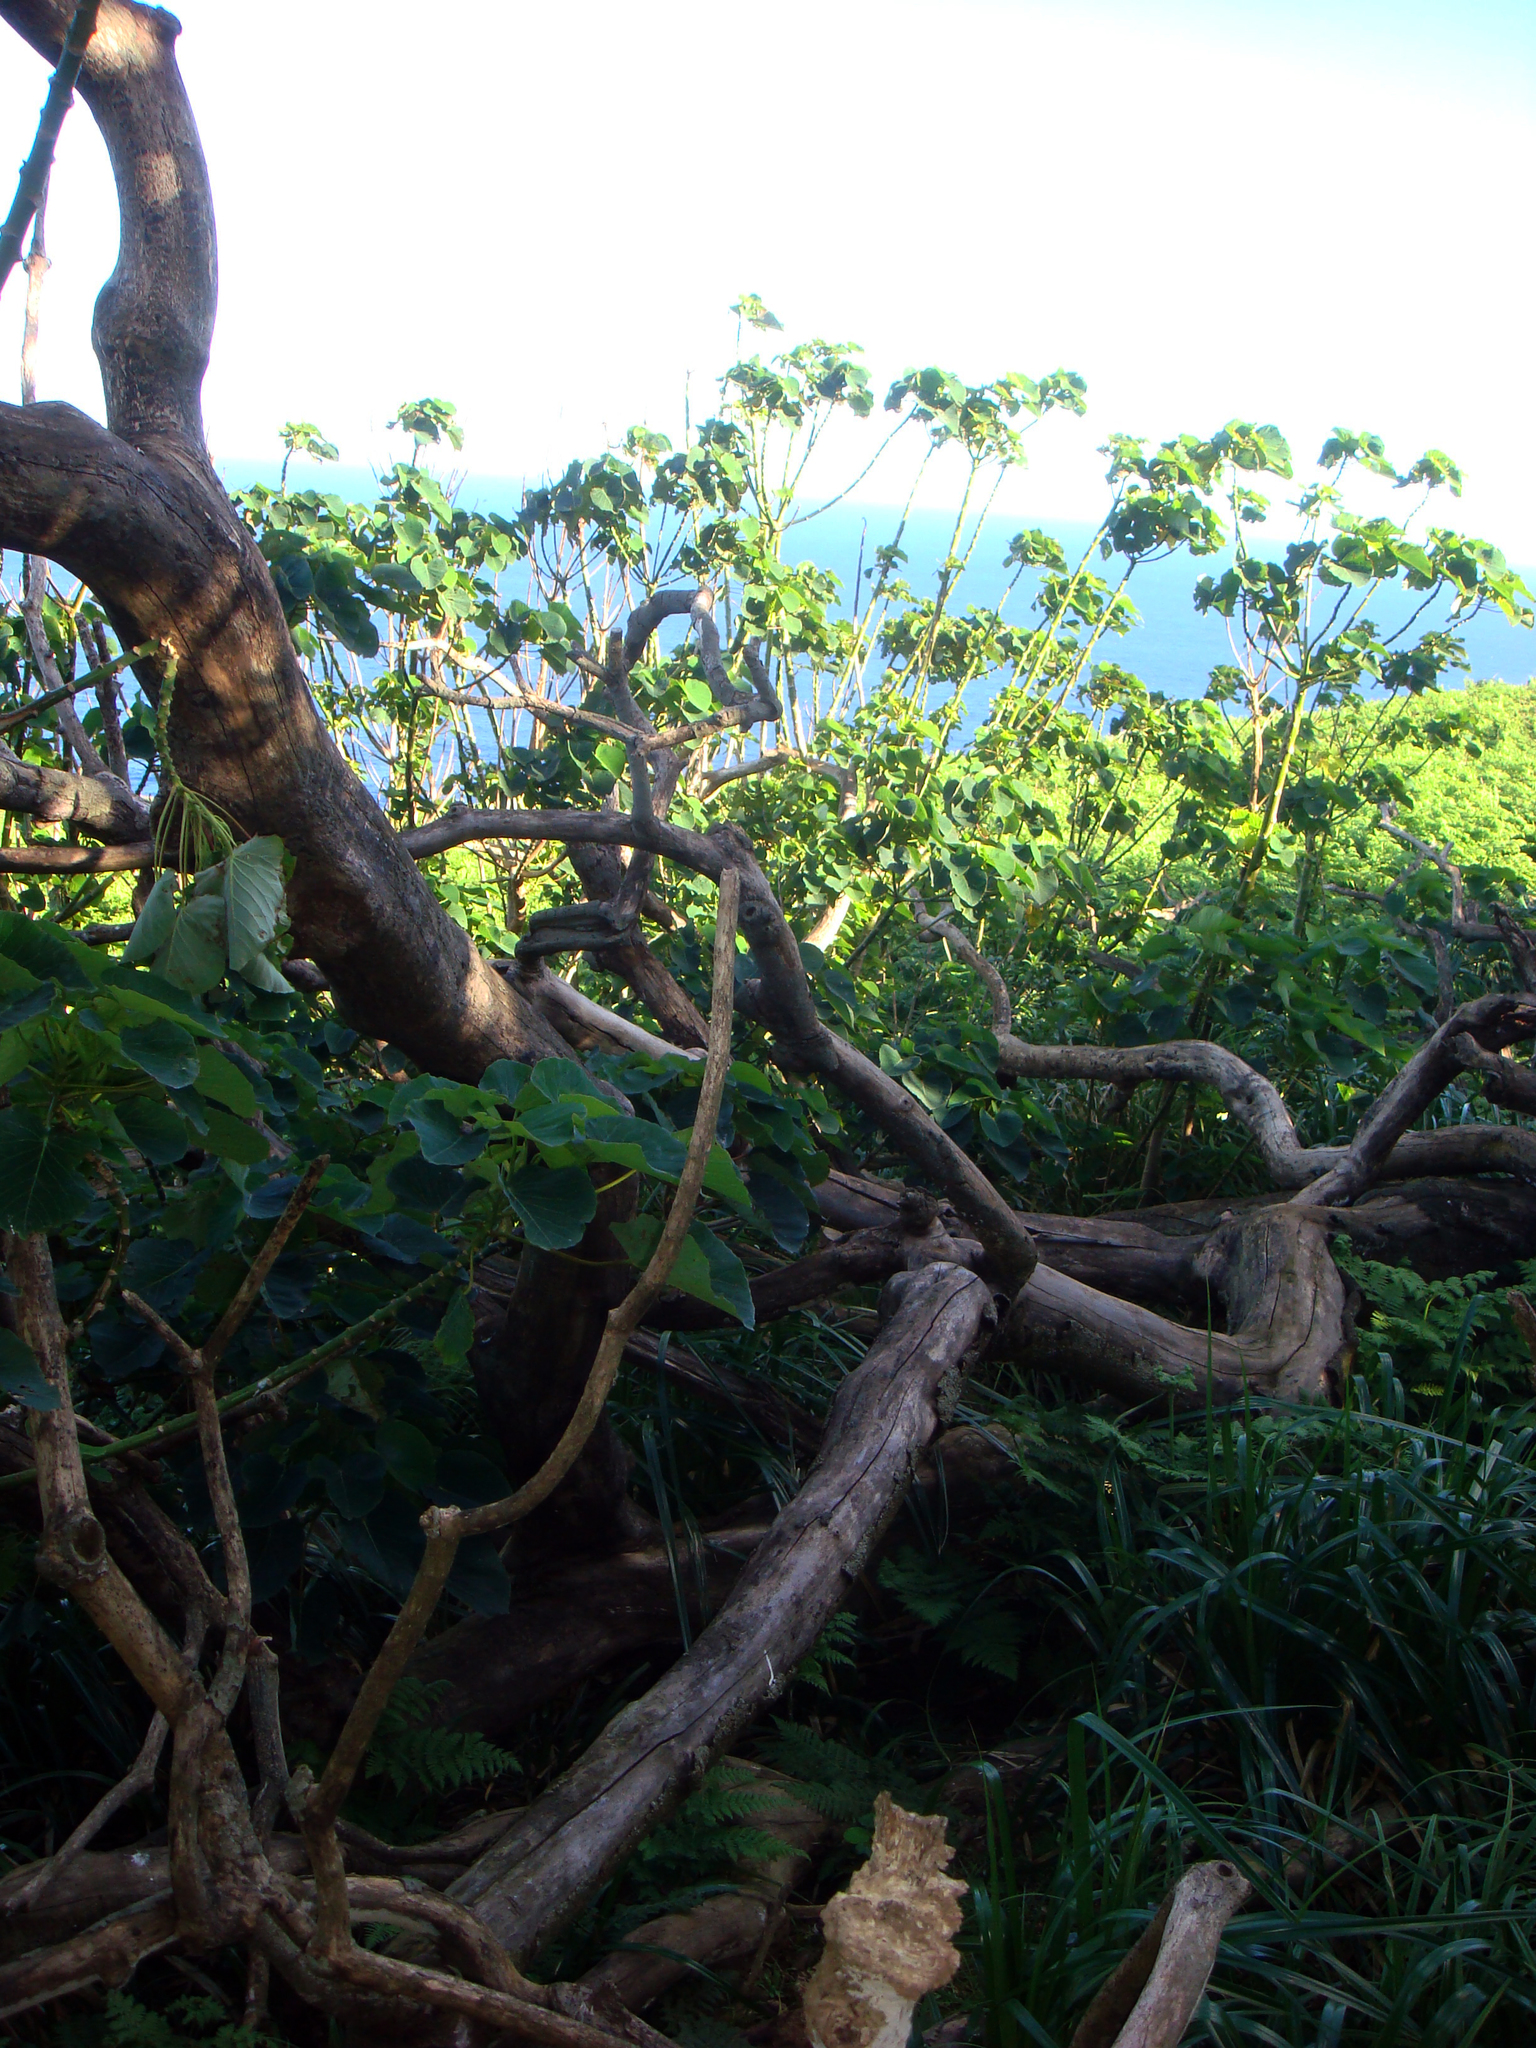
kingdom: Plantae
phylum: Tracheophyta
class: Magnoliopsida
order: Malpighiales
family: Euphorbiaceae
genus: Homalanthus
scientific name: Homalanthus polyandrus
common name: Kermadec poplar
